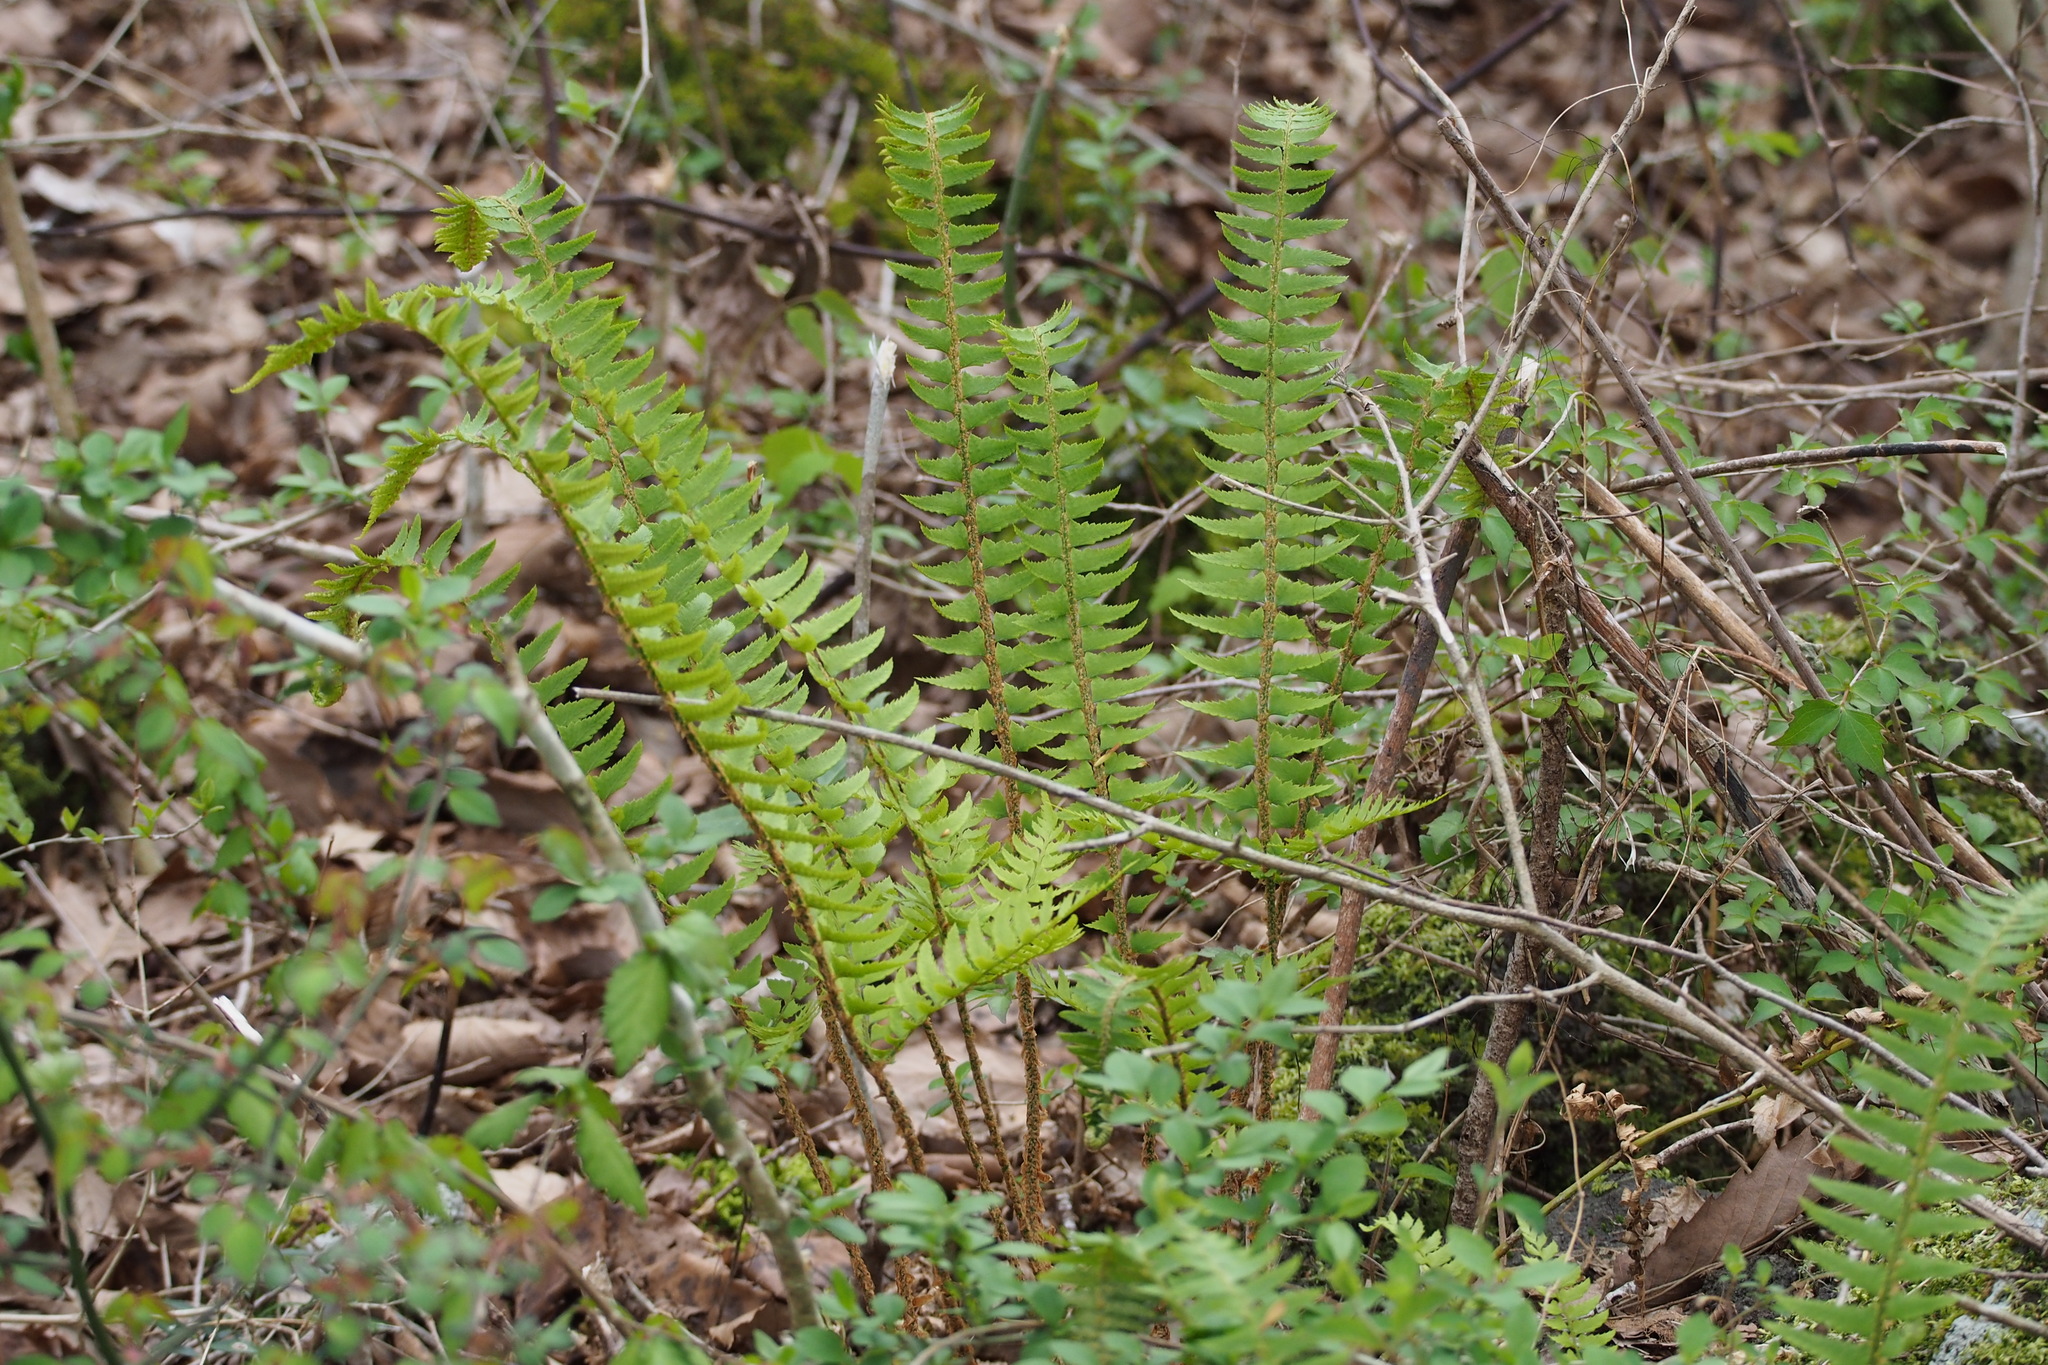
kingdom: Plantae
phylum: Tracheophyta
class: Polypodiopsida
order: Polypodiales
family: Dryopteridaceae
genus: Polystichum
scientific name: Polystichum tripteron
